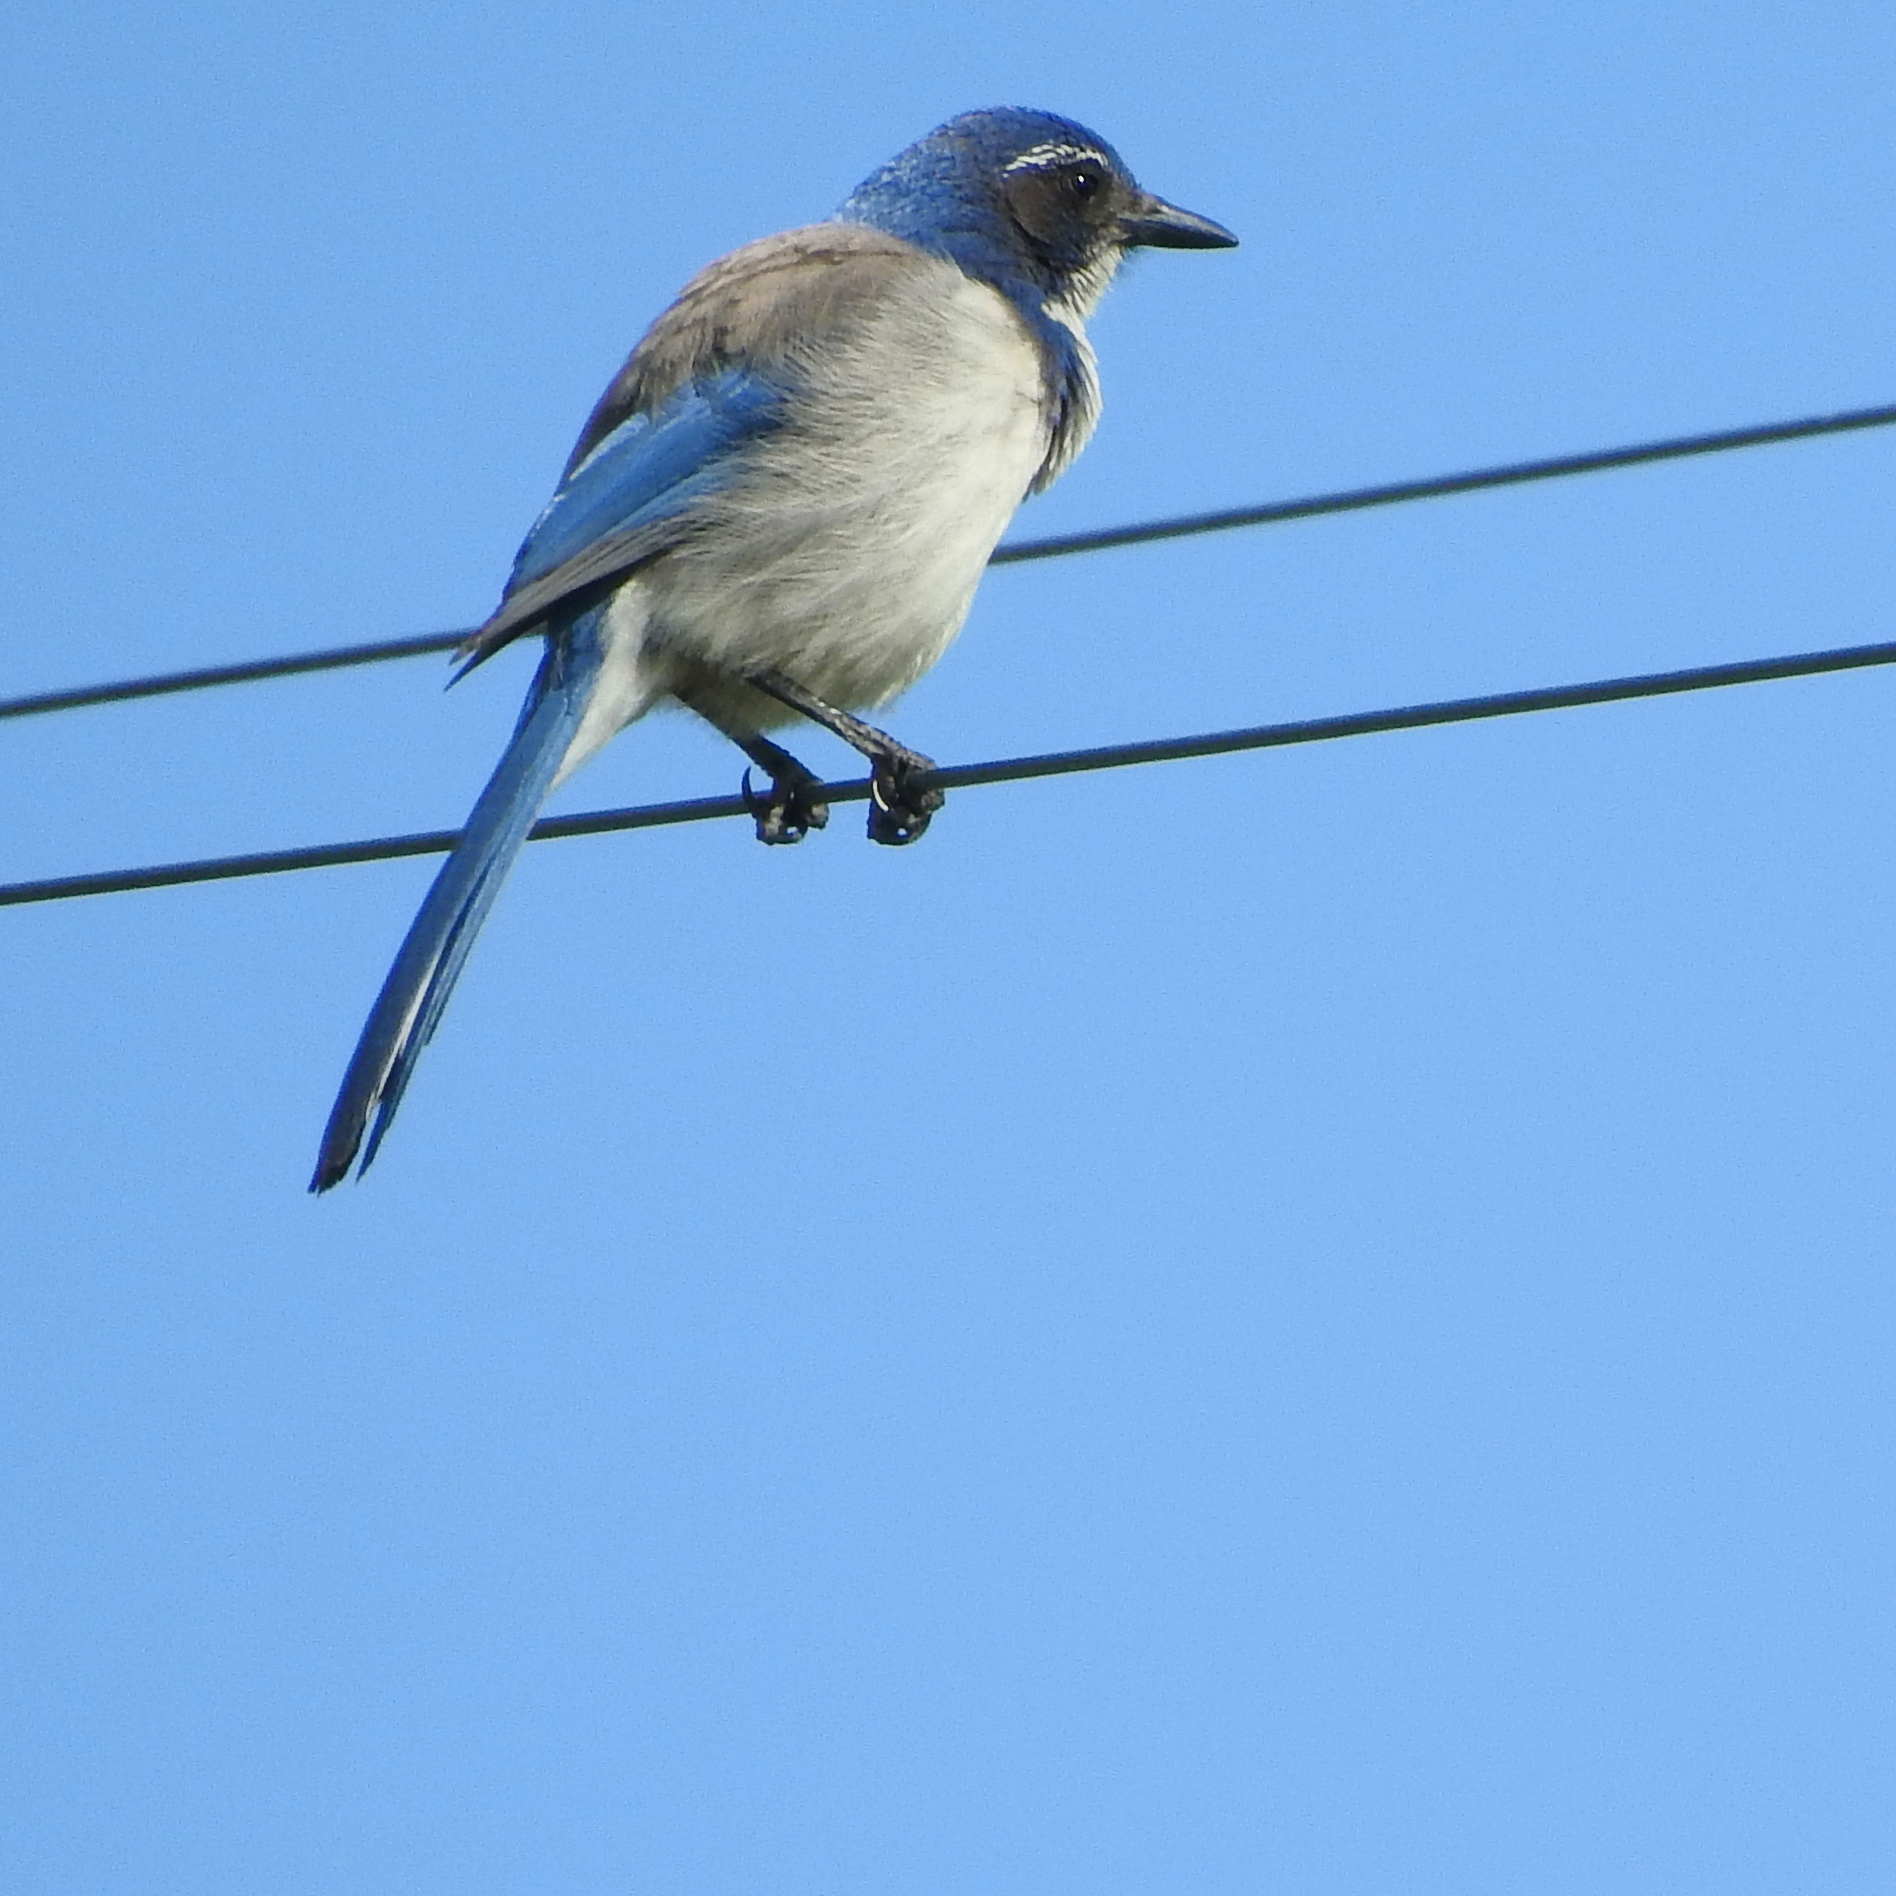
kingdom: Animalia
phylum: Chordata
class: Aves
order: Passeriformes
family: Corvidae
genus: Aphelocoma
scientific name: Aphelocoma californica
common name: California scrub-jay
